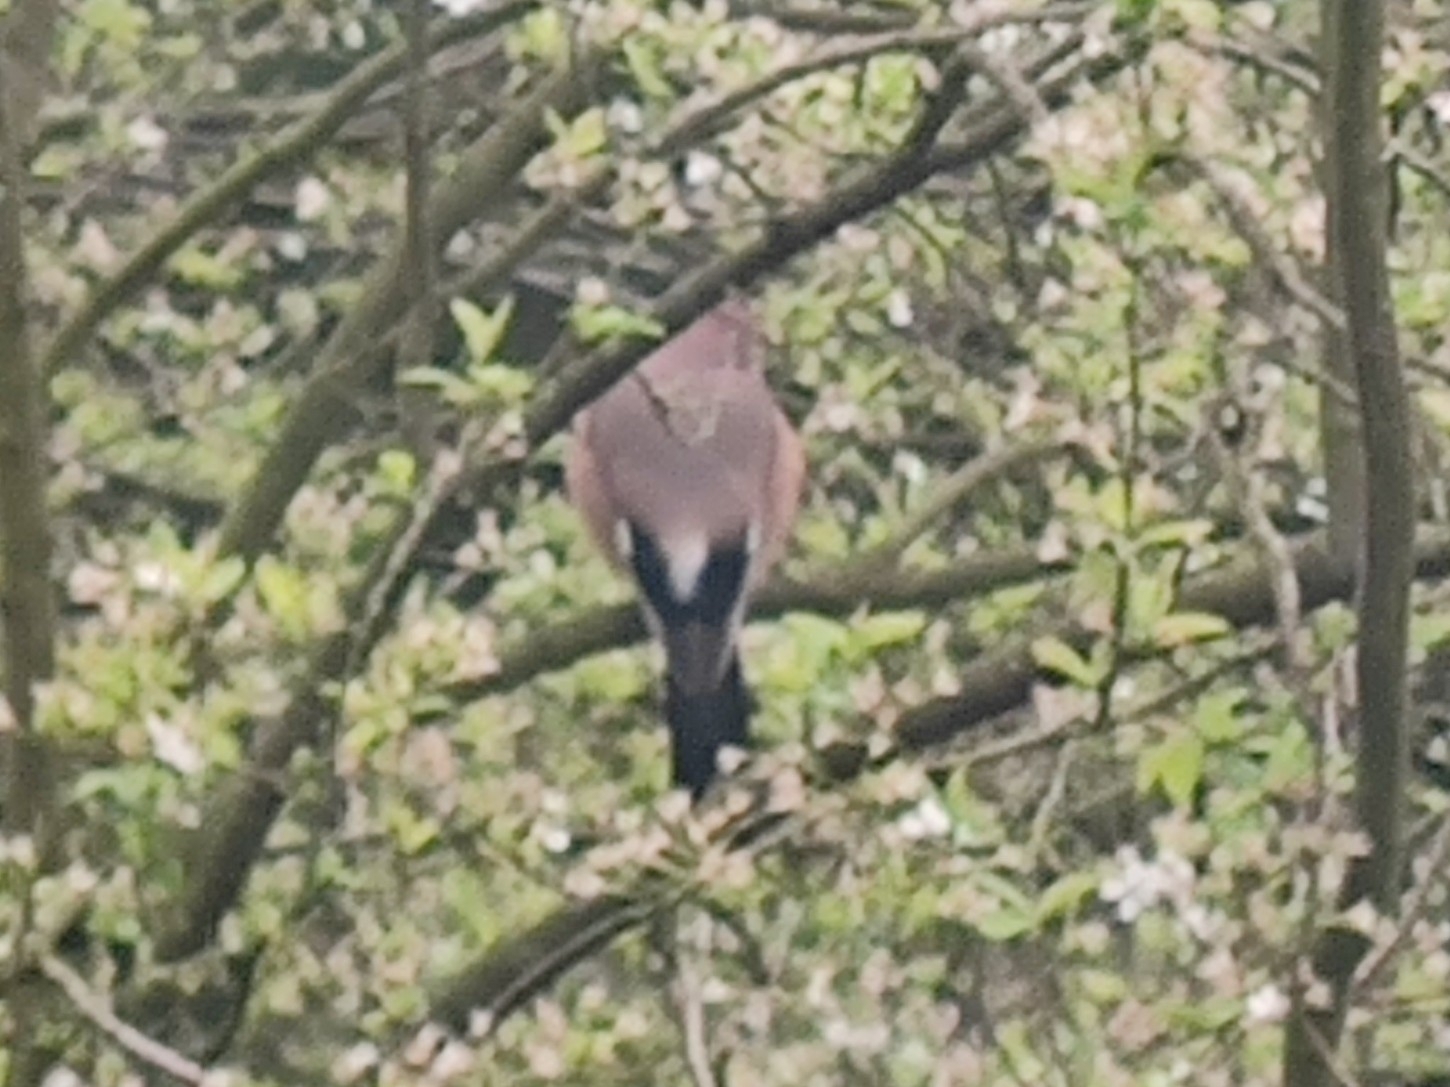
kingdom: Animalia
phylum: Chordata
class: Aves
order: Passeriformes
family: Corvidae
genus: Garrulus
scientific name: Garrulus glandarius
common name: Eurasian jay
